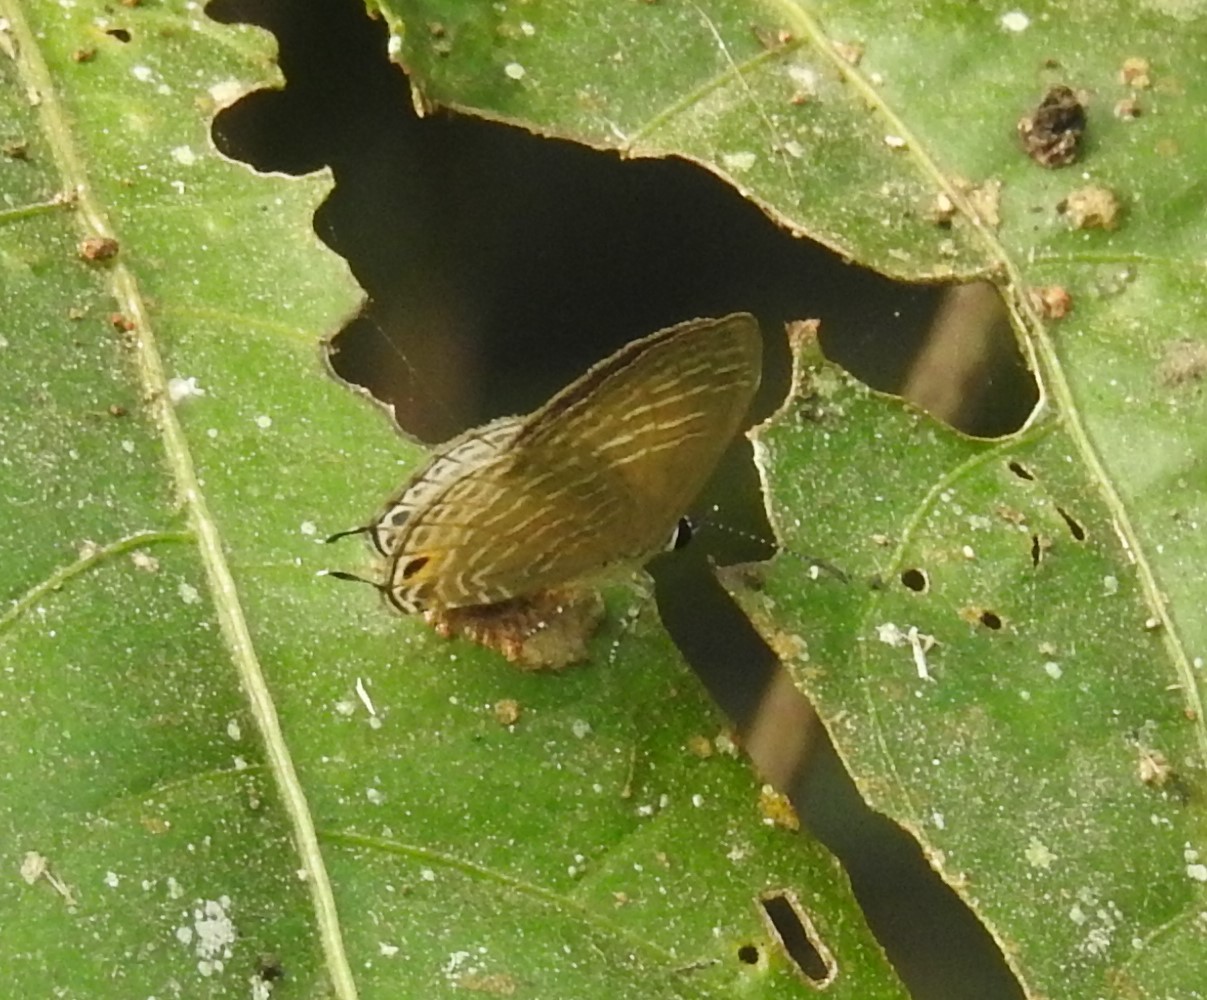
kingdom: Animalia
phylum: Arthropoda
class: Insecta
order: Lepidoptera
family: Lycaenidae
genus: Jamides
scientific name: Jamides celeno
